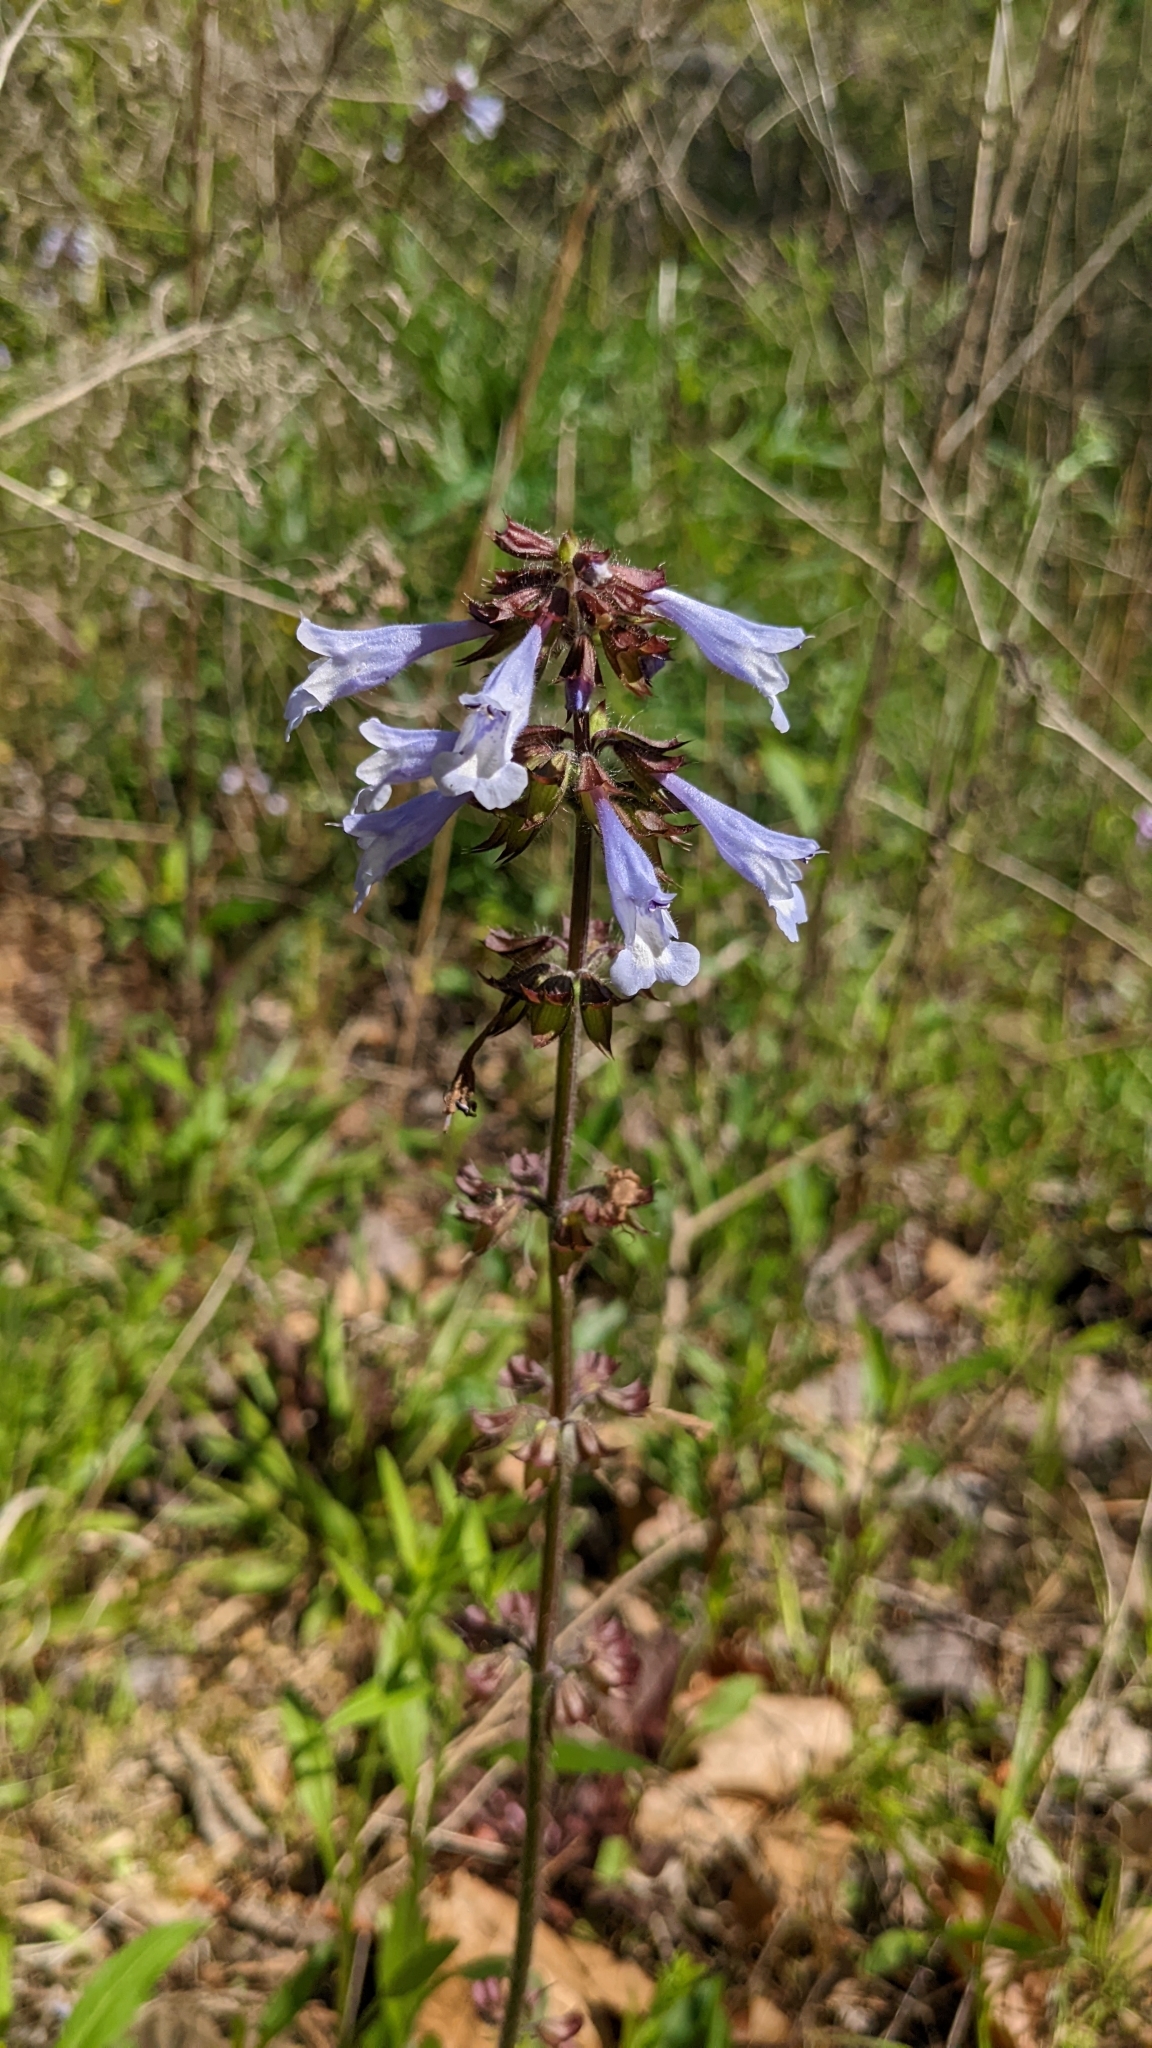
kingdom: Plantae
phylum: Tracheophyta
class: Magnoliopsida
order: Lamiales
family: Lamiaceae
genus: Salvia
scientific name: Salvia lyrata
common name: Cancerweed
